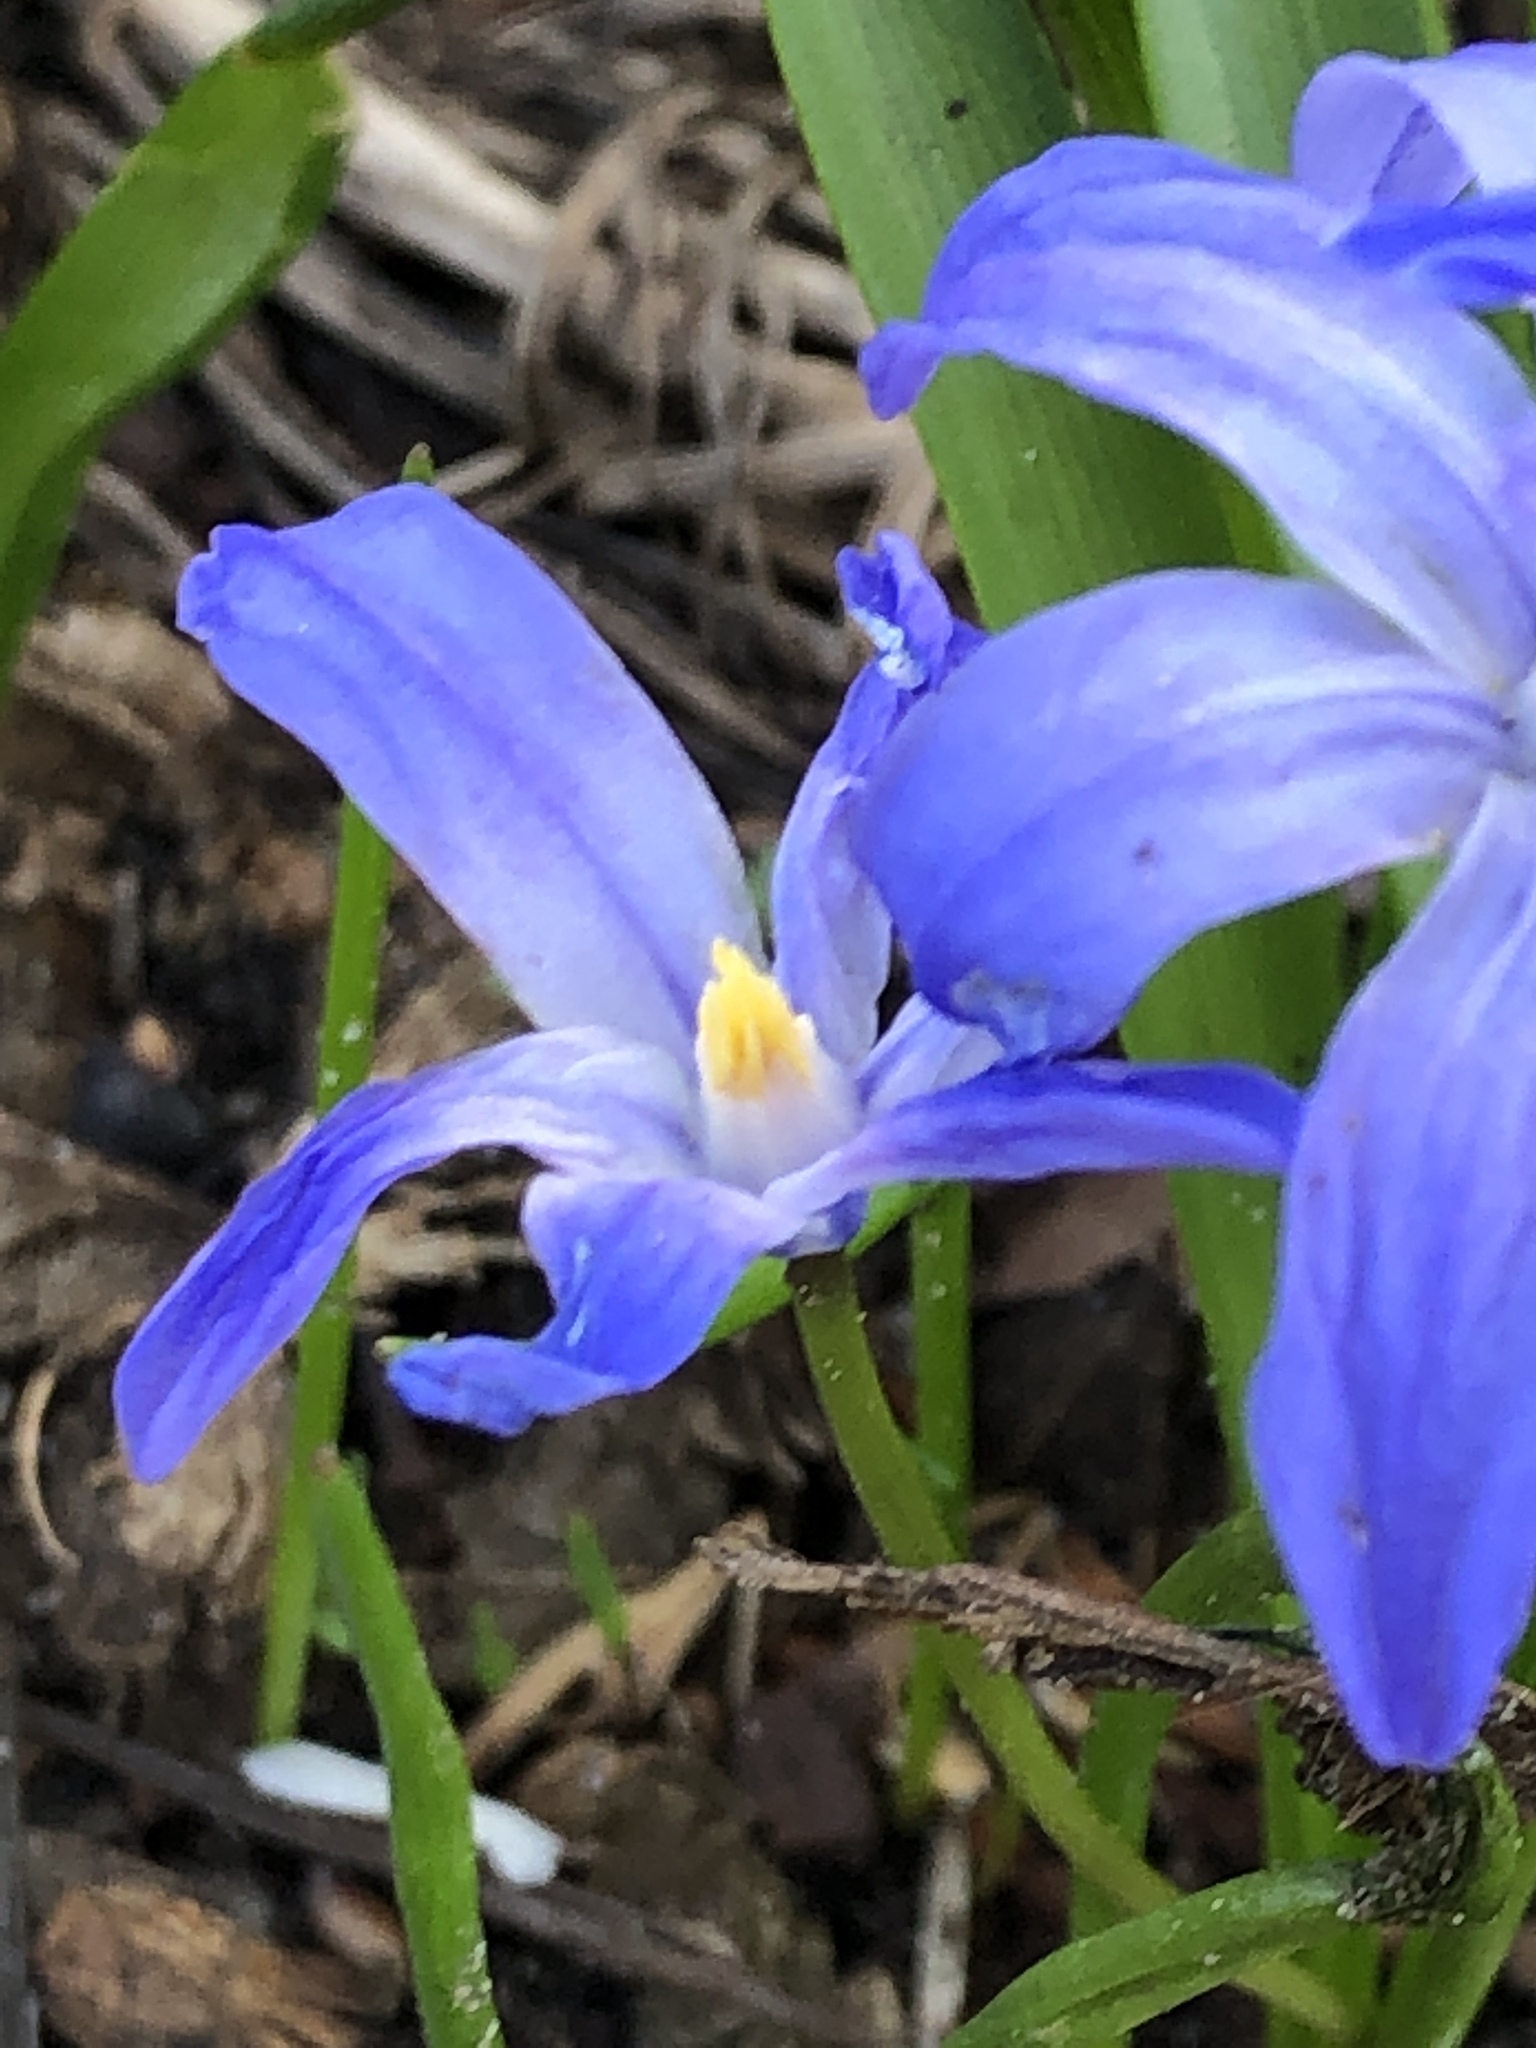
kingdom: Plantae
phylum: Tracheophyta
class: Liliopsida
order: Asparagales
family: Asparagaceae
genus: Scilla
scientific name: Scilla luciliae
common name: Boissier's glory-of-the-snow
